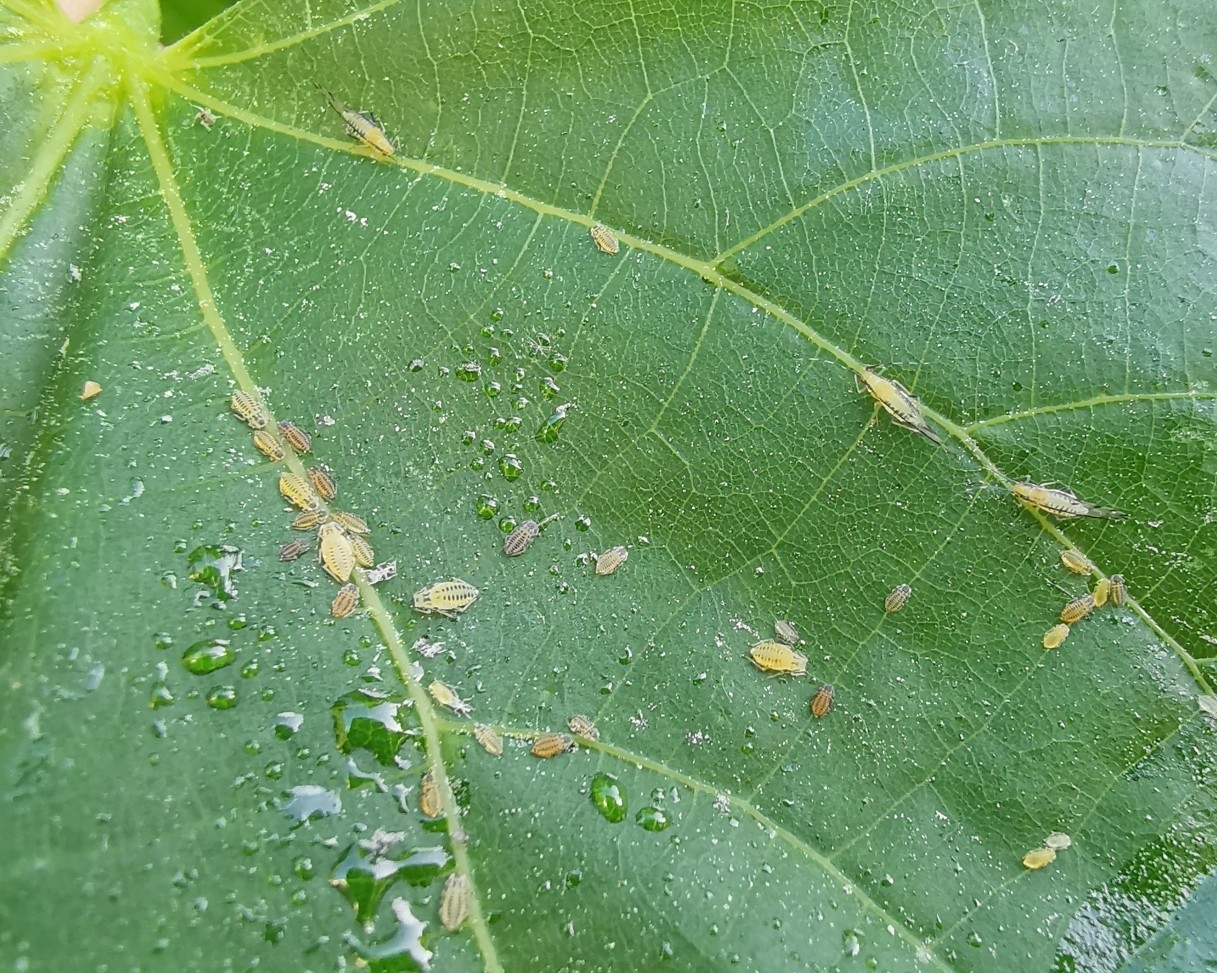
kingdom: Animalia
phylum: Arthropoda
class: Insecta
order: Hemiptera
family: Aphididae
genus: Eucallipterus
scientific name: Eucallipterus tiliae
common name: Aphid
